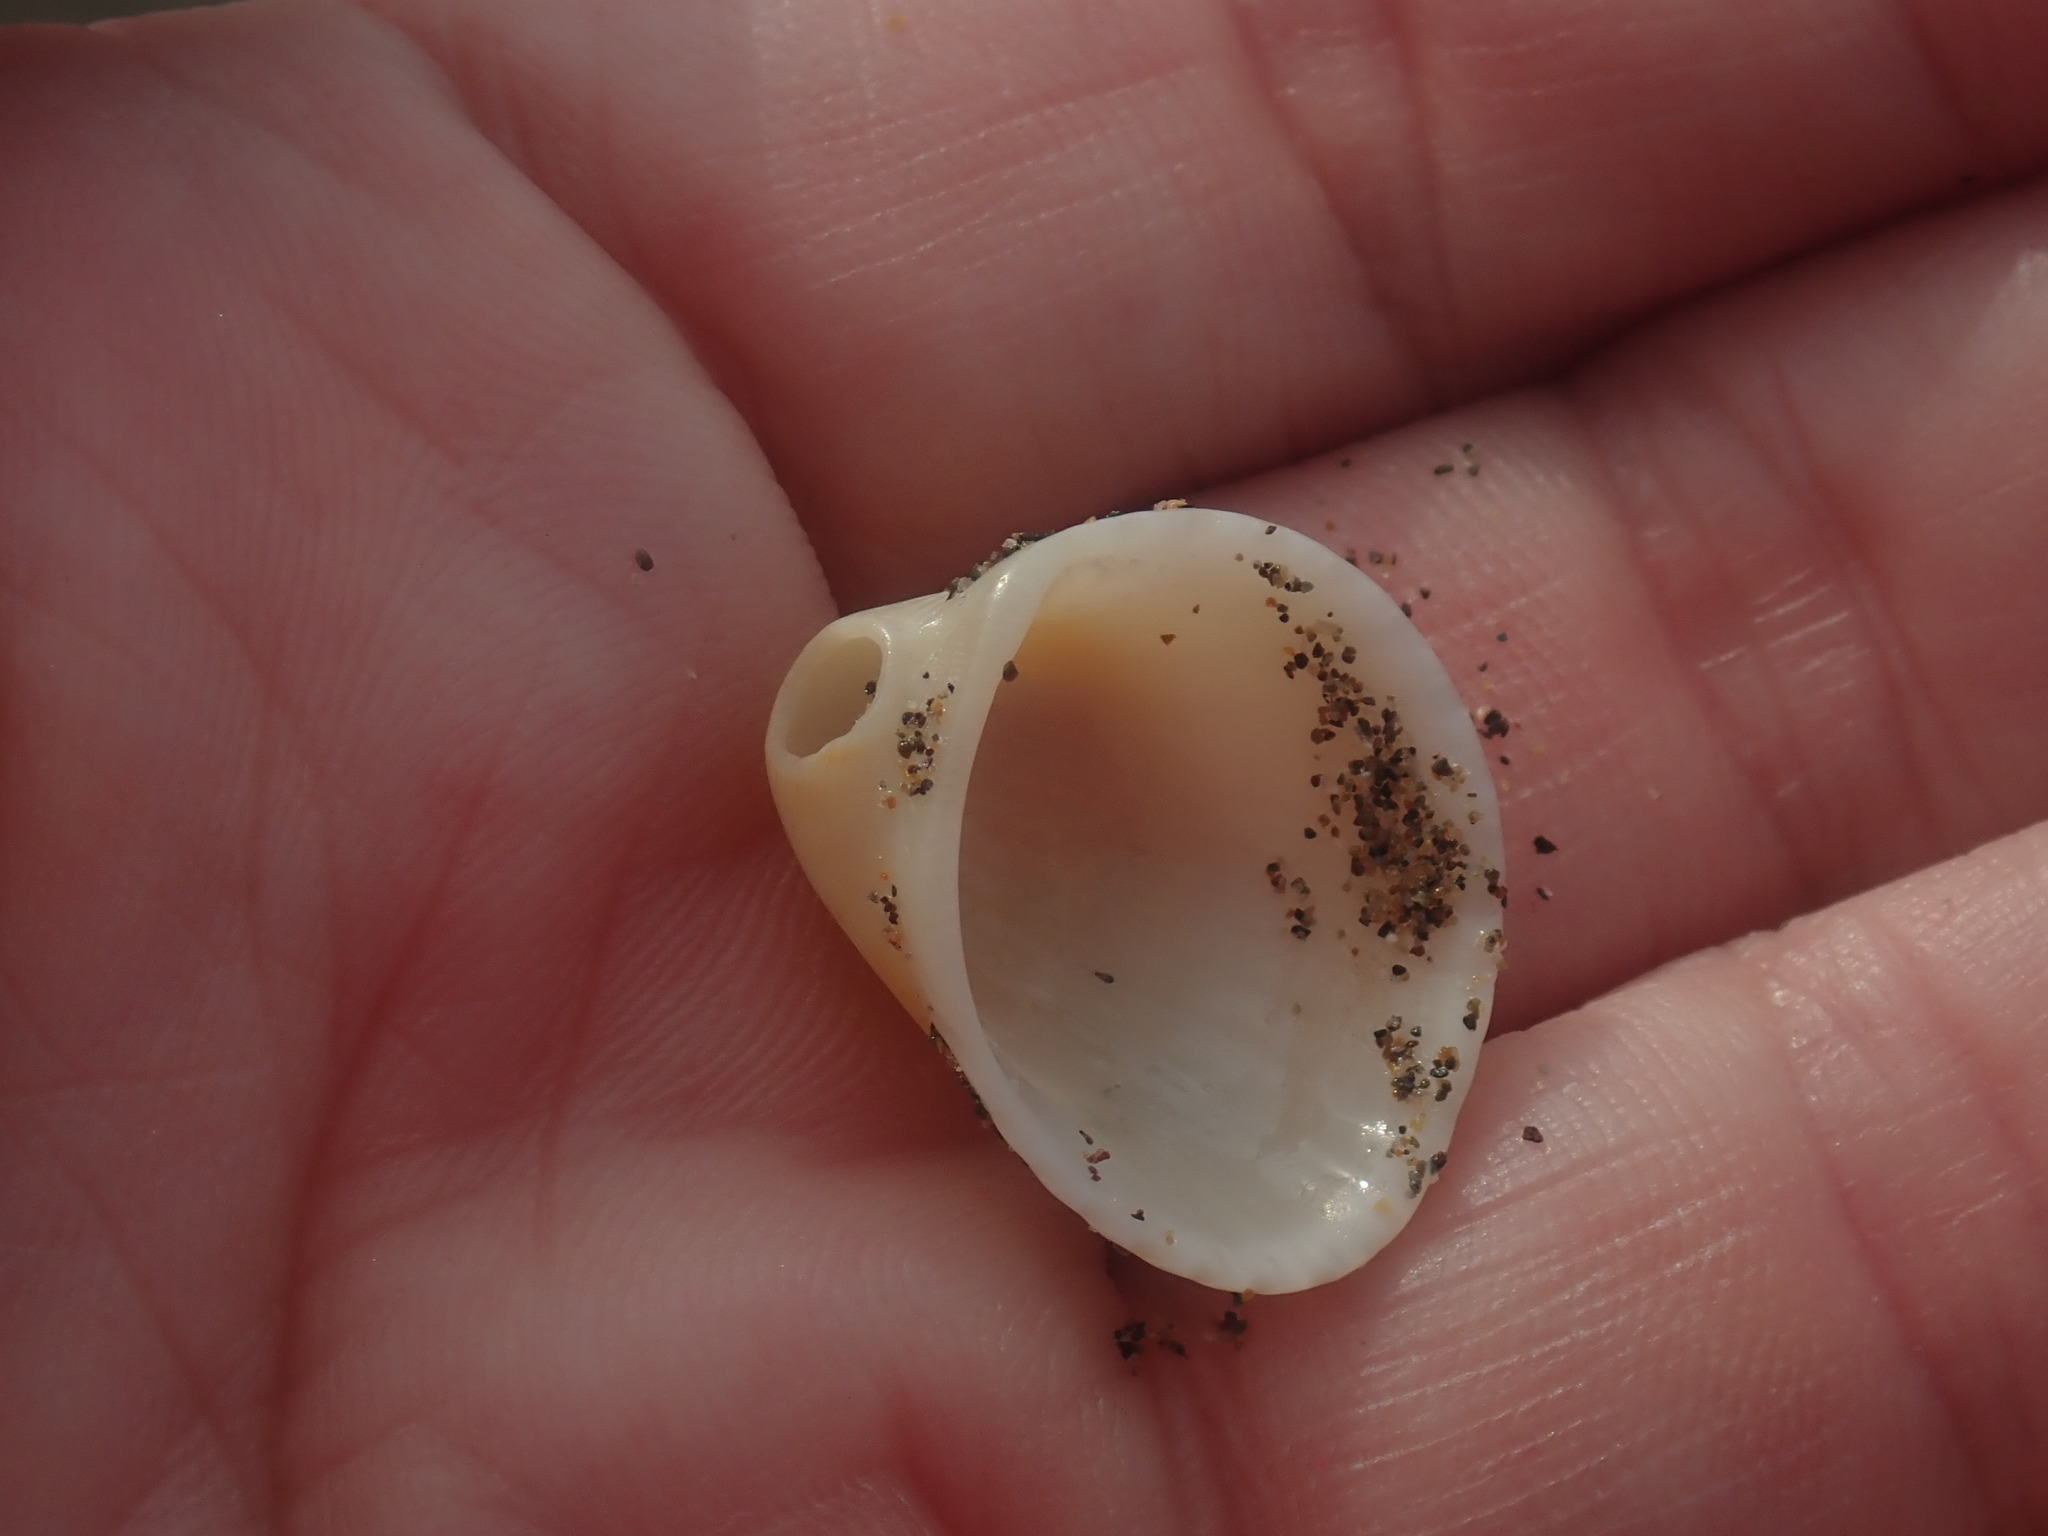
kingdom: Animalia
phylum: Mollusca
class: Bivalvia
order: Arcida
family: Arcidae
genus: Anadara
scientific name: Anadara chemnitzii
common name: Chemnitz's triangular ark
